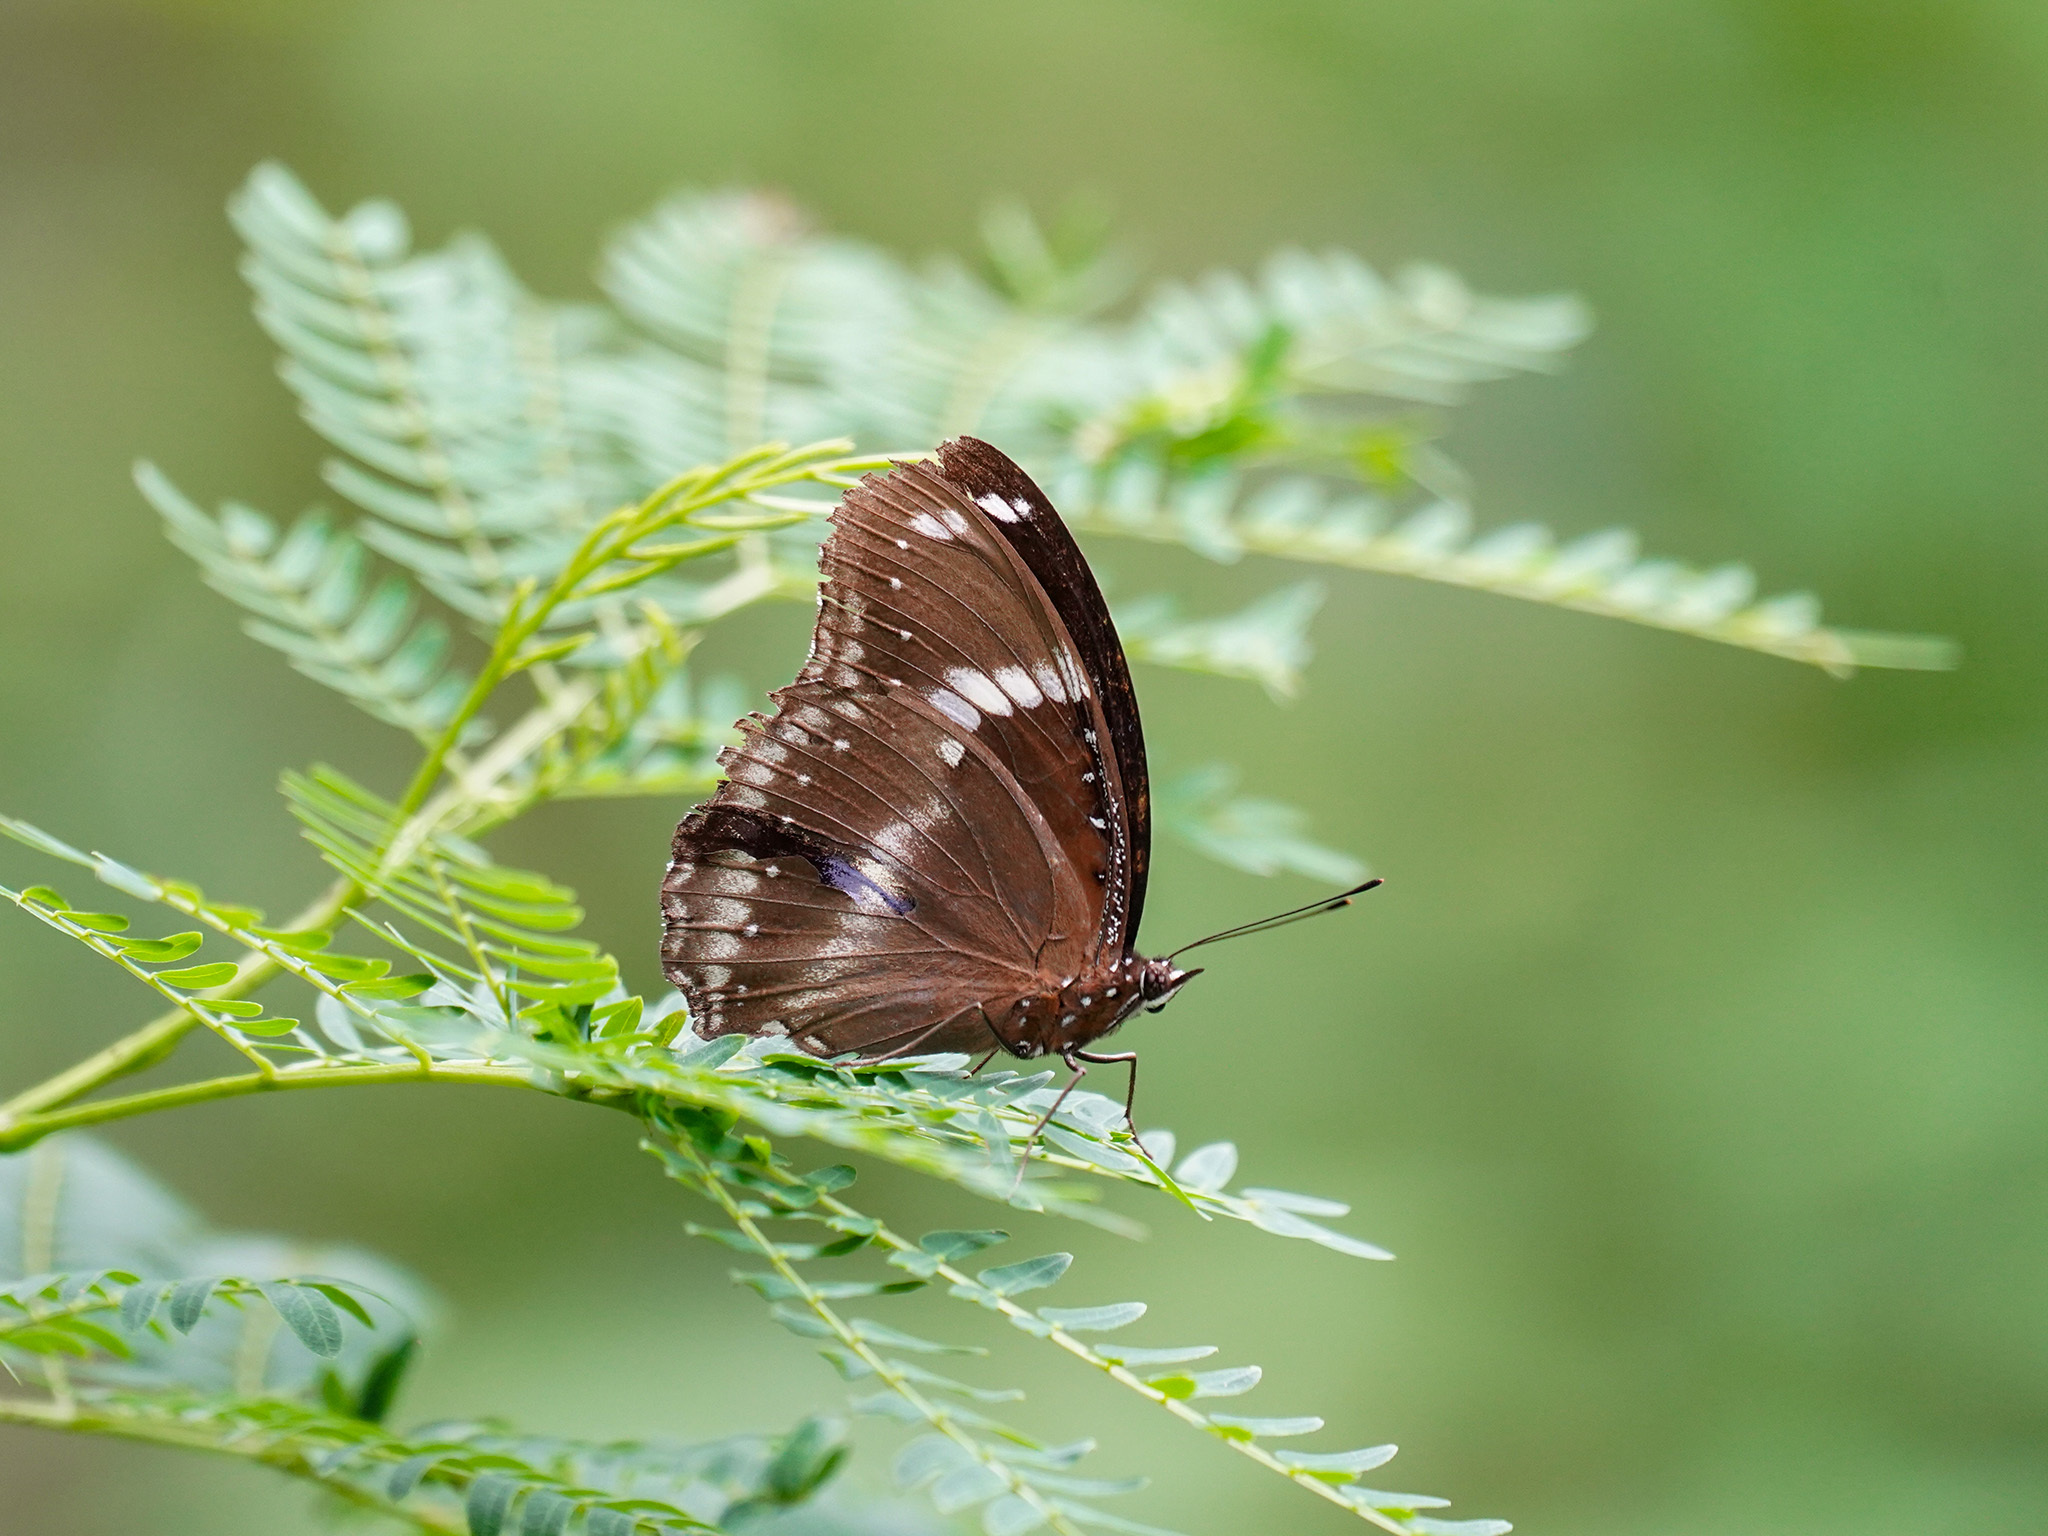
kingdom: Animalia
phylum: Arthropoda
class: Insecta
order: Lepidoptera
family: Nymphalidae
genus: Hypolimnas
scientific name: Hypolimnas bolina
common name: Great eggfly
